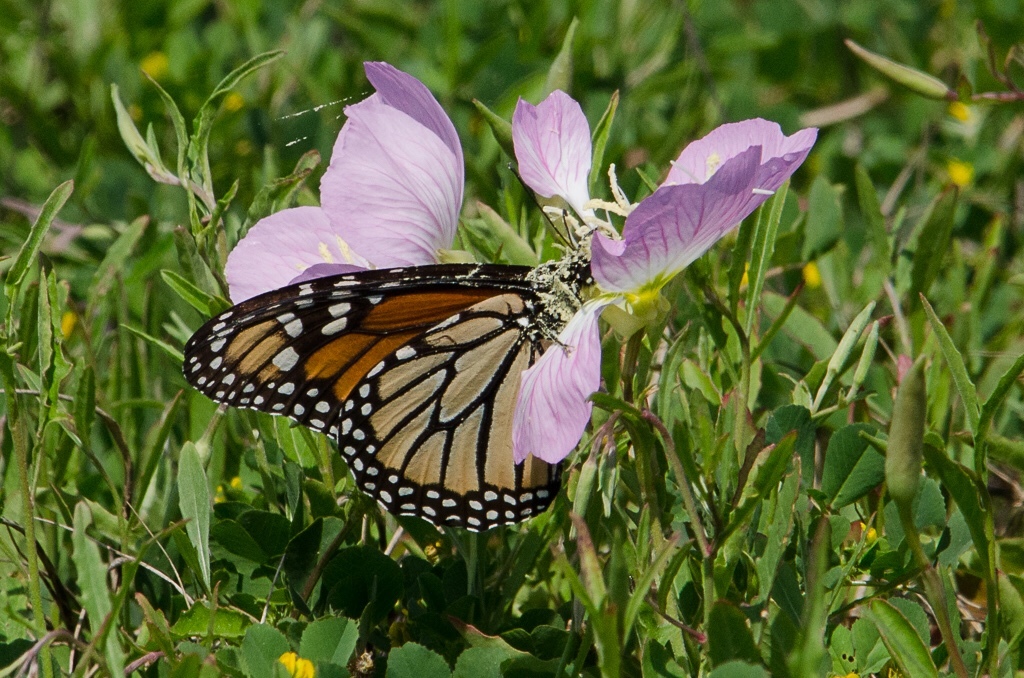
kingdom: Plantae
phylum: Tracheophyta
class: Magnoliopsida
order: Myrtales
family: Onagraceae
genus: Oenothera
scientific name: Oenothera speciosa
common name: White evening-primrose
